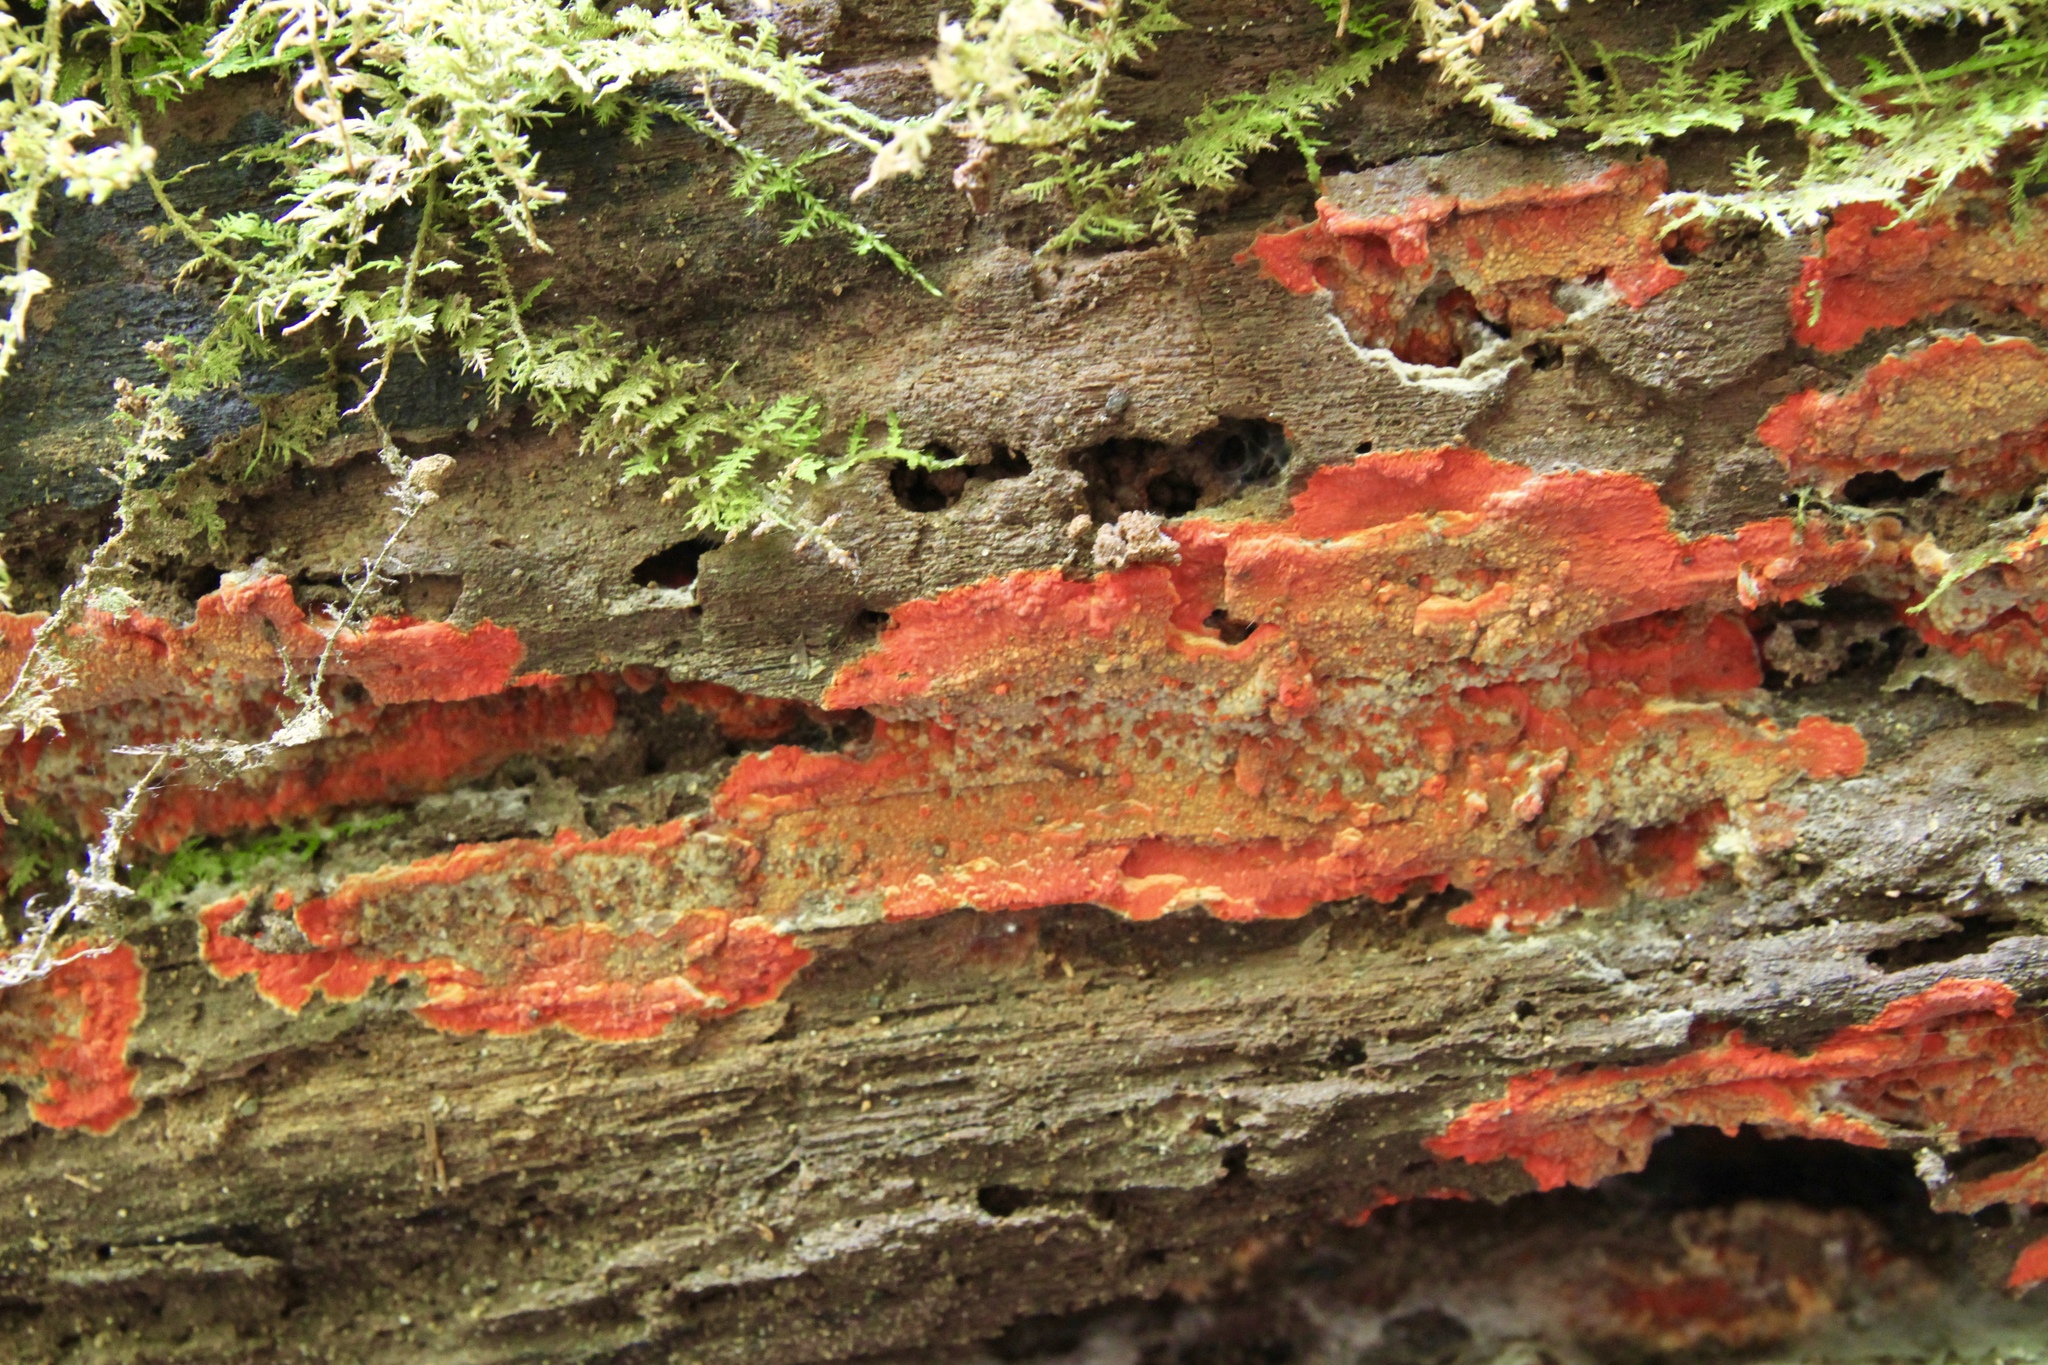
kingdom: Fungi
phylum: Basidiomycota
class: Agaricomycetes
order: Polyporales
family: Meruliaceae
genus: Phlebia
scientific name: Phlebia coccineofulva
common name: Scarlet waxcrust
